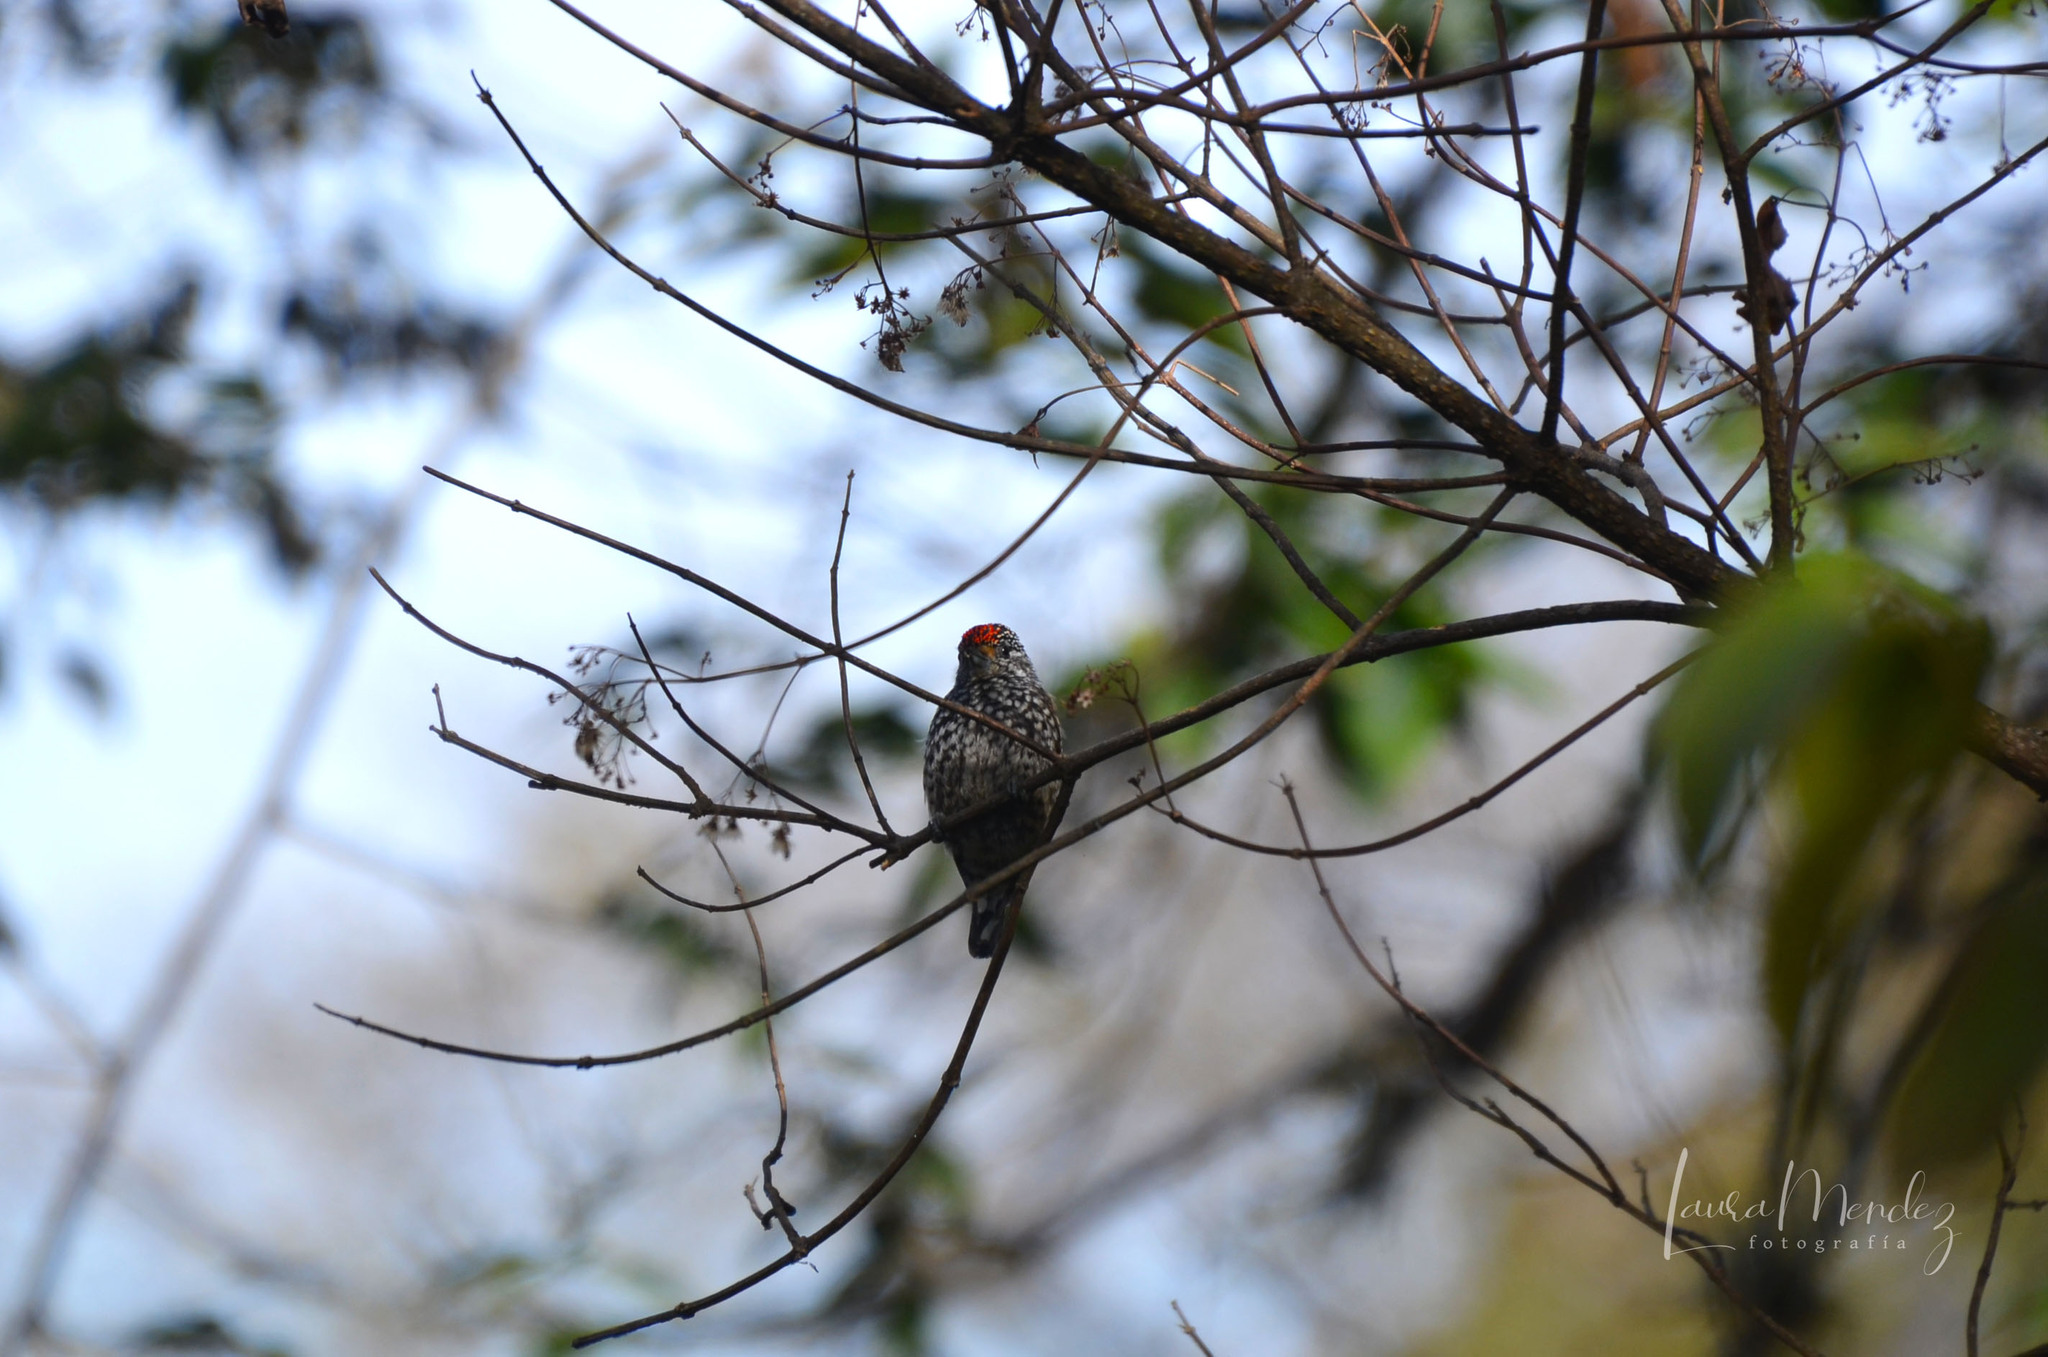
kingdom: Animalia
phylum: Chordata
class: Aves
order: Piciformes
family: Picidae
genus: Picumnus
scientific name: Picumnus dorbignyanus
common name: Ocellated piculet
